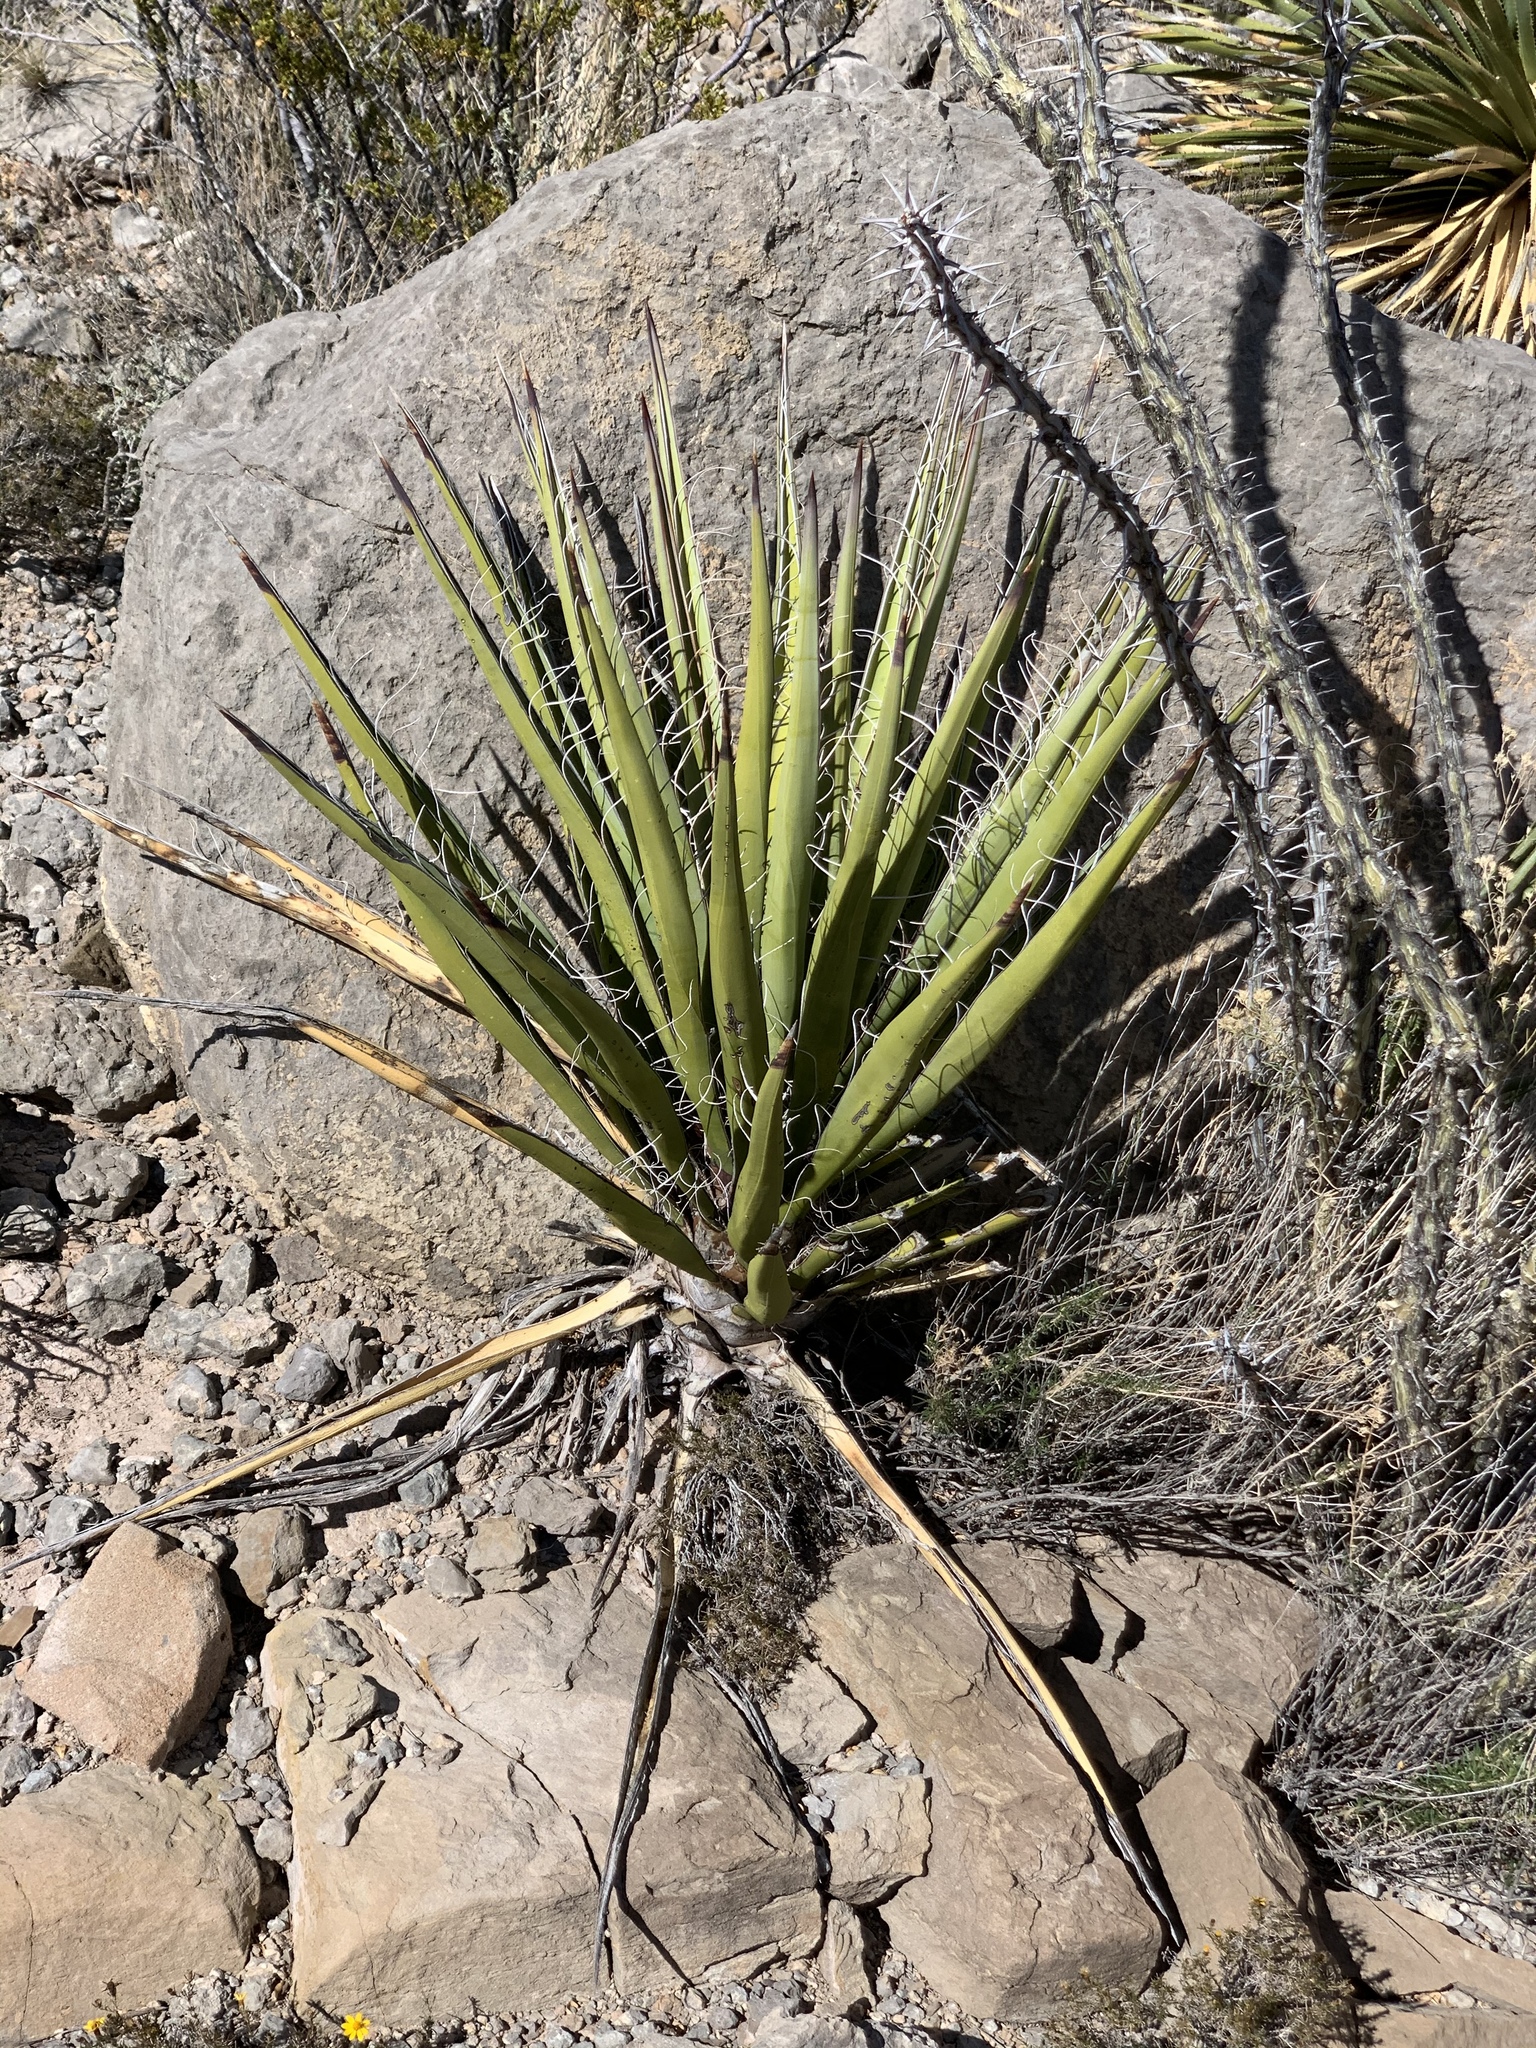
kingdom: Plantae
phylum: Tracheophyta
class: Liliopsida
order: Asparagales
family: Asparagaceae
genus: Yucca
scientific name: Yucca baccata
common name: Banana yucca
